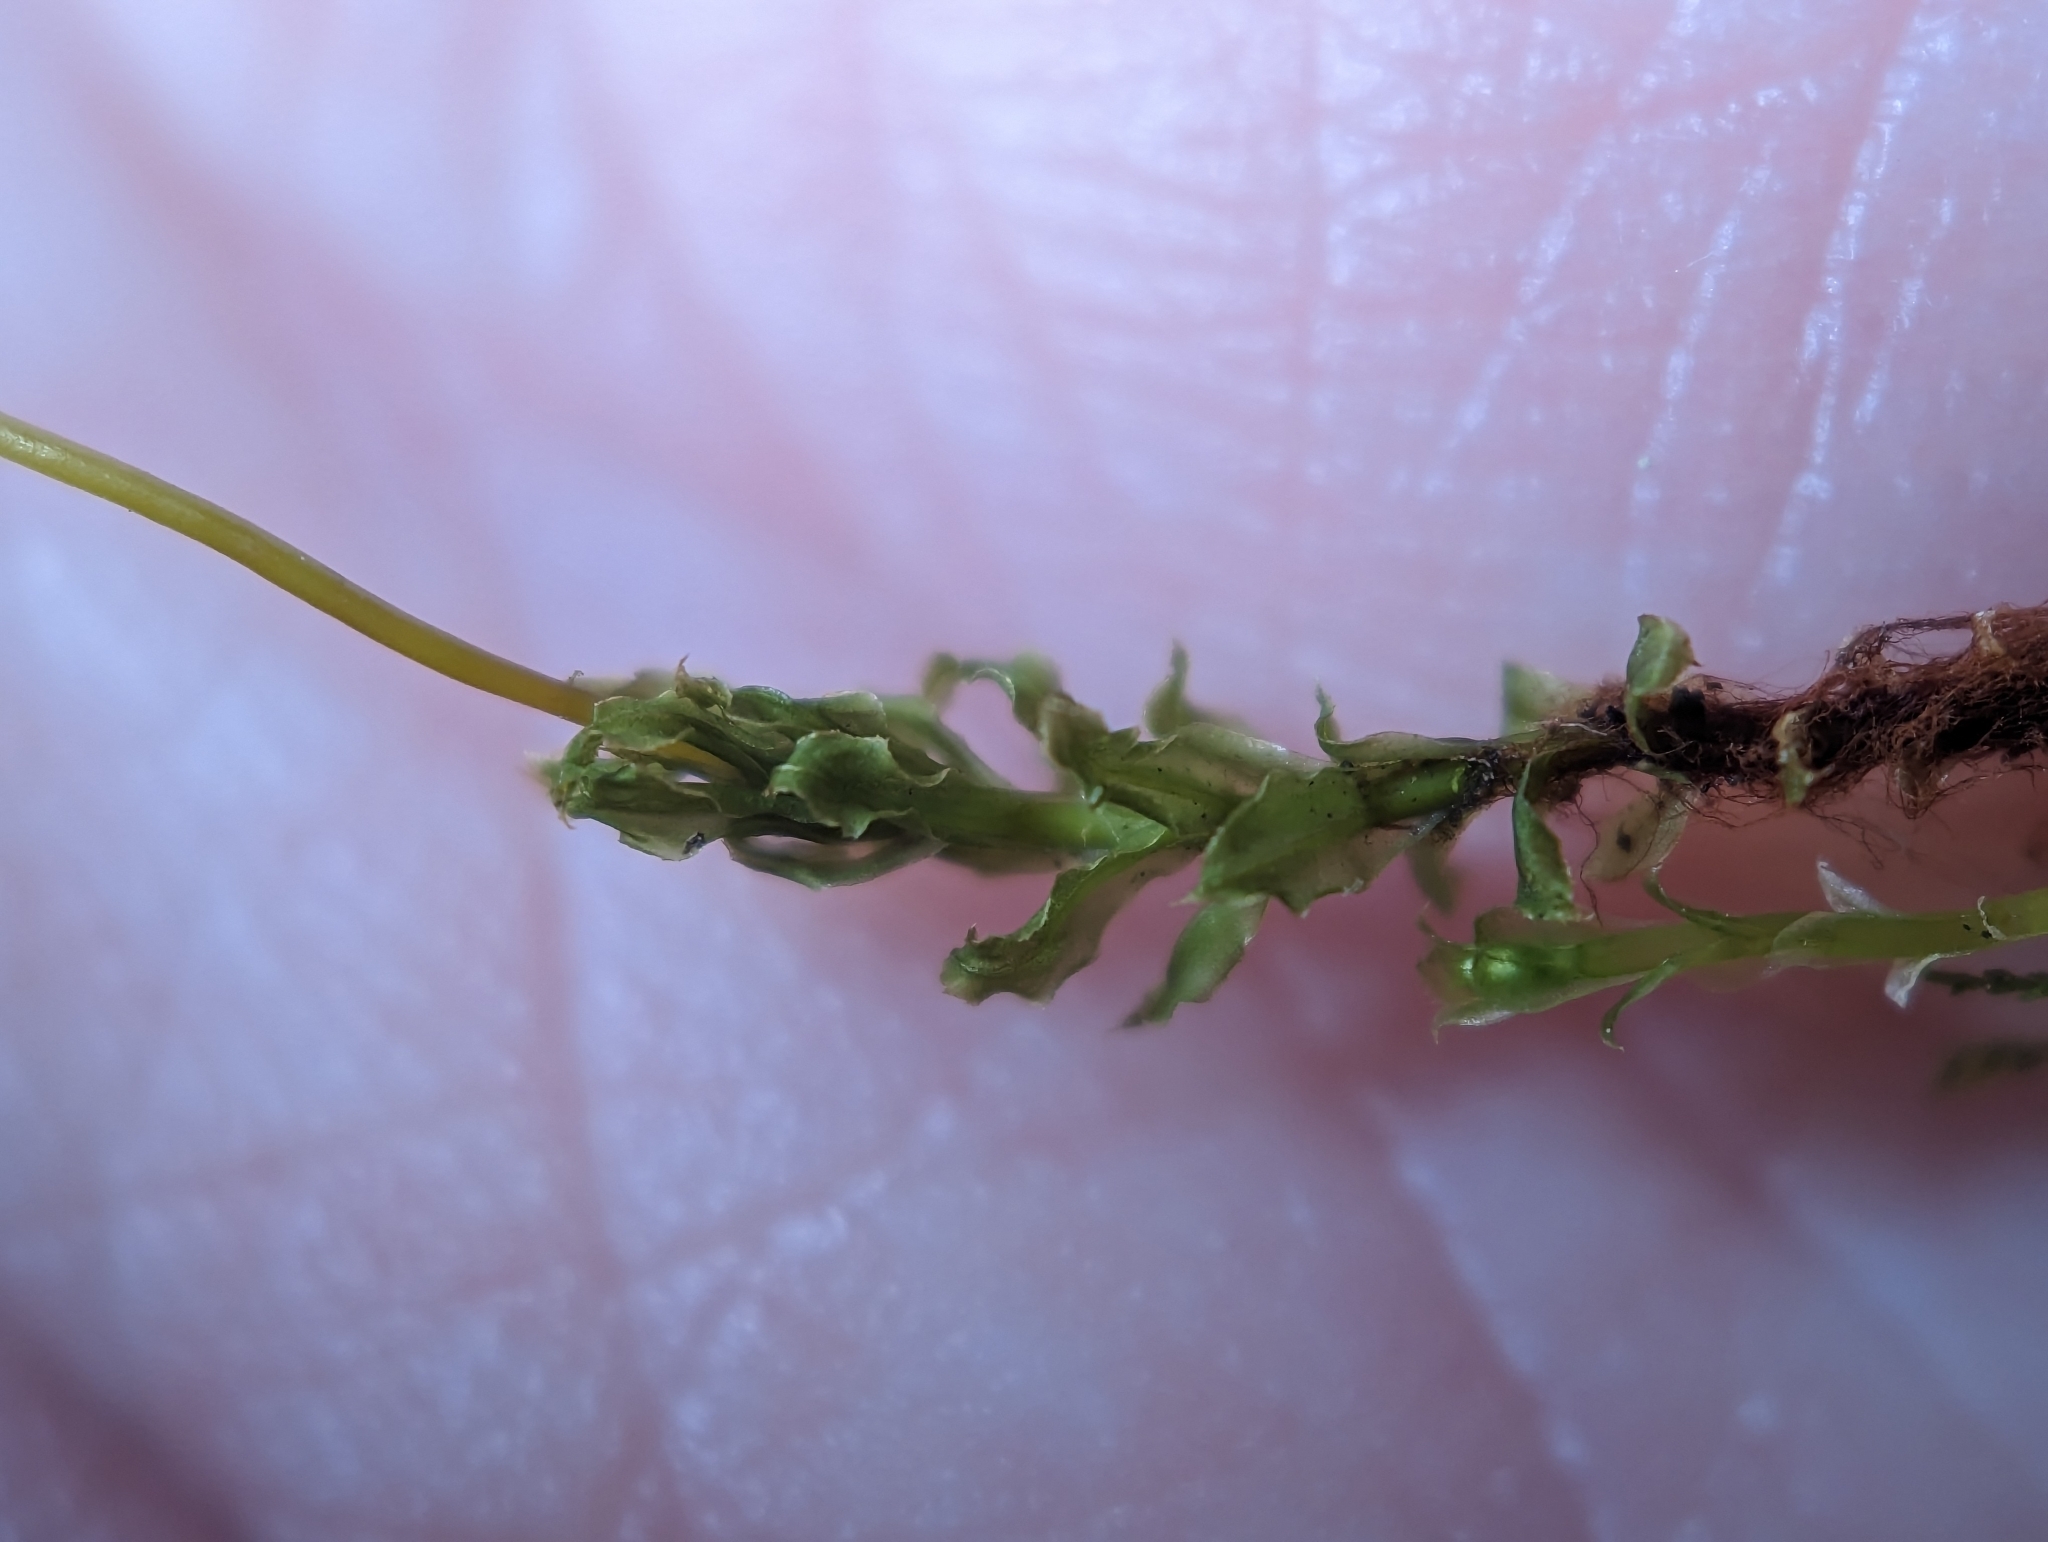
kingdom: Plantae
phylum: Bryophyta
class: Bryopsida
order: Bryales
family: Mniaceae
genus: Plagiomnium
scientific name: Plagiomnium cuspidatum
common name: Woodsy leafy moss
